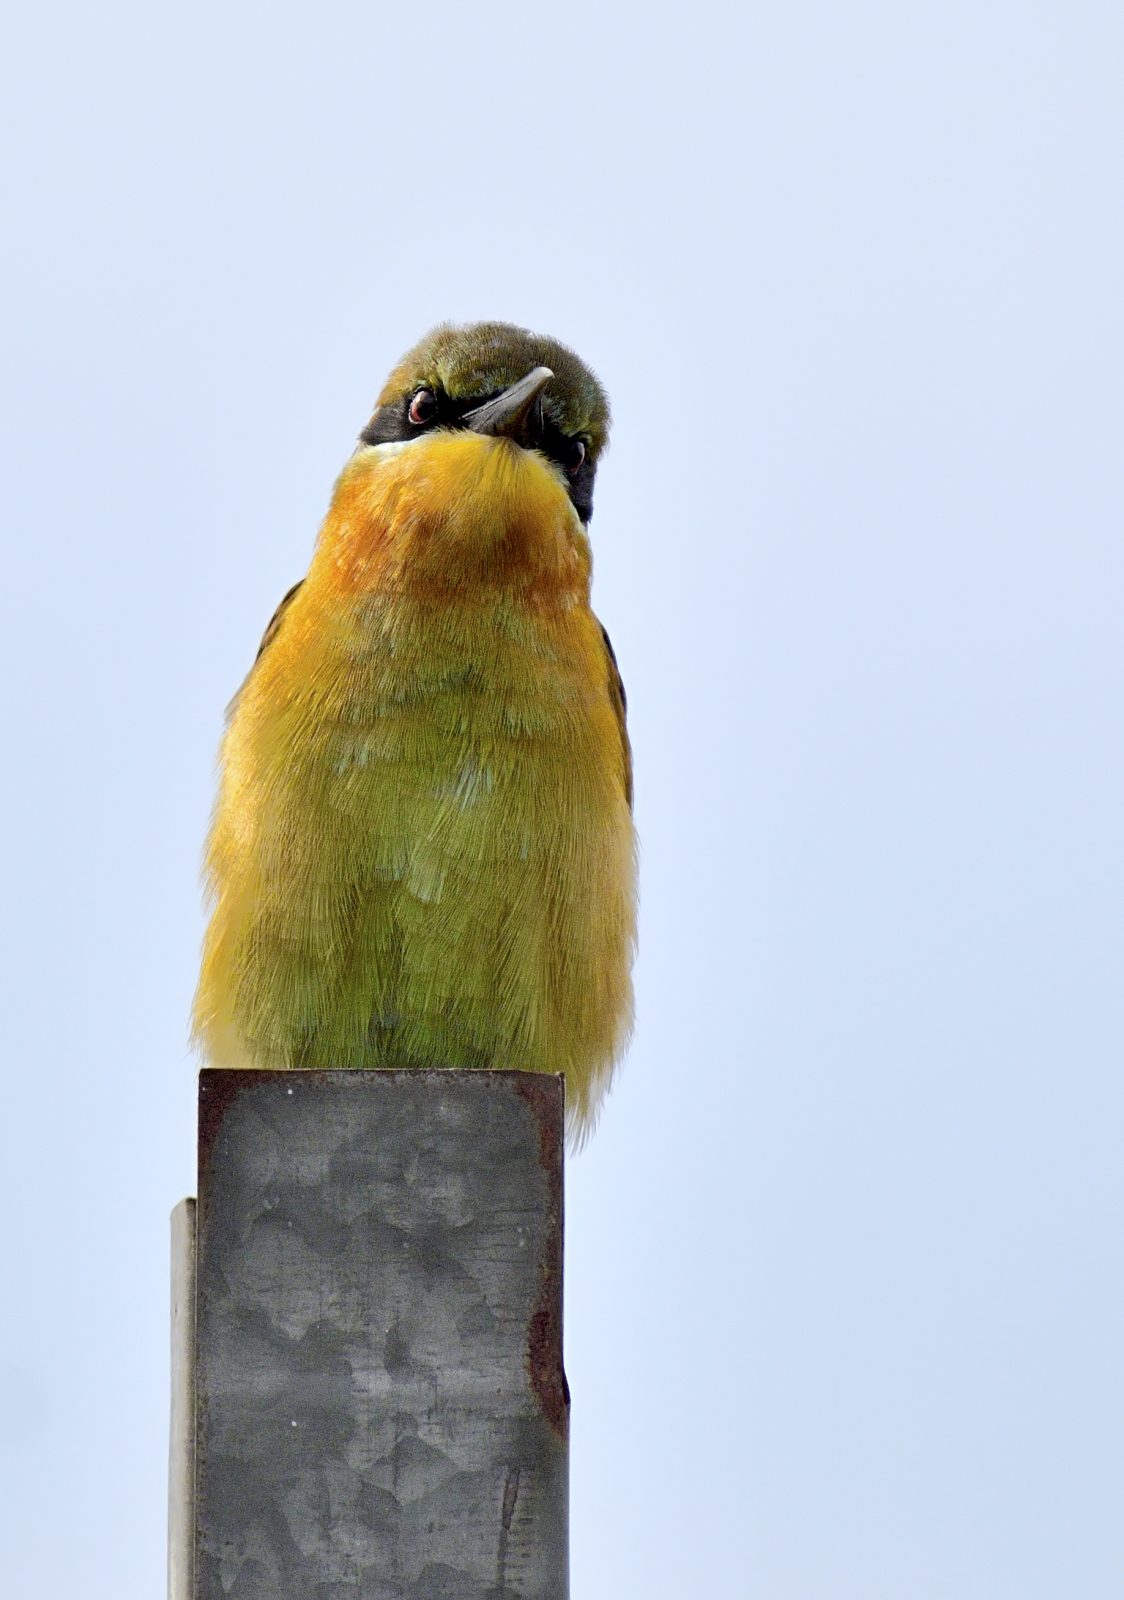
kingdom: Animalia
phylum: Chordata
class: Aves
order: Coraciiformes
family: Meropidae
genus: Merops
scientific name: Merops philippinus
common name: Blue-tailed bee-eater
